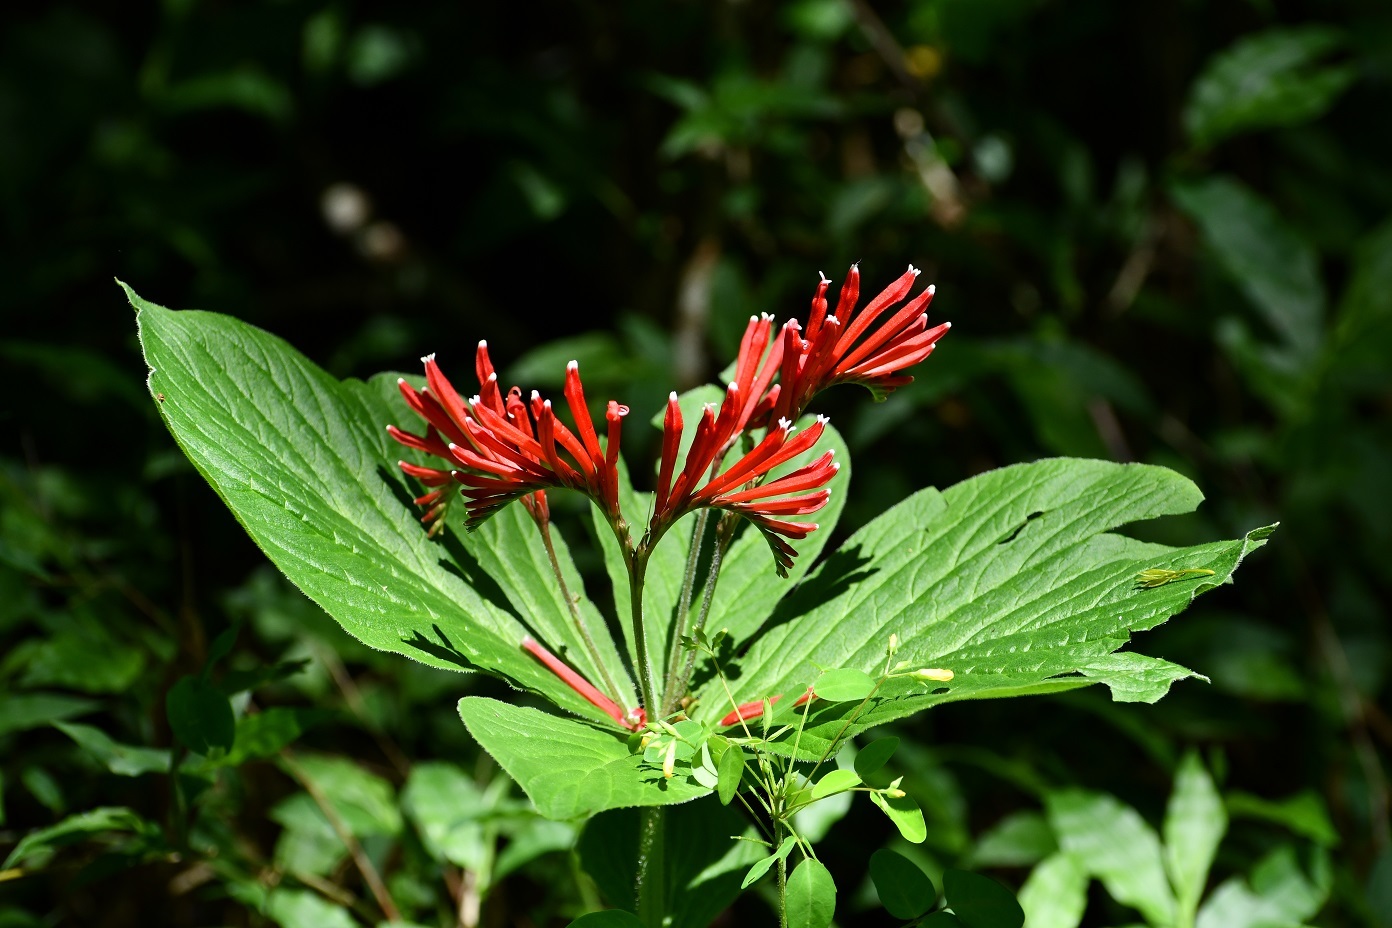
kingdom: Plantae
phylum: Tracheophyta
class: Magnoliopsida
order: Gentianales
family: Loganiaceae
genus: Spigelia
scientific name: Spigelia splendens
